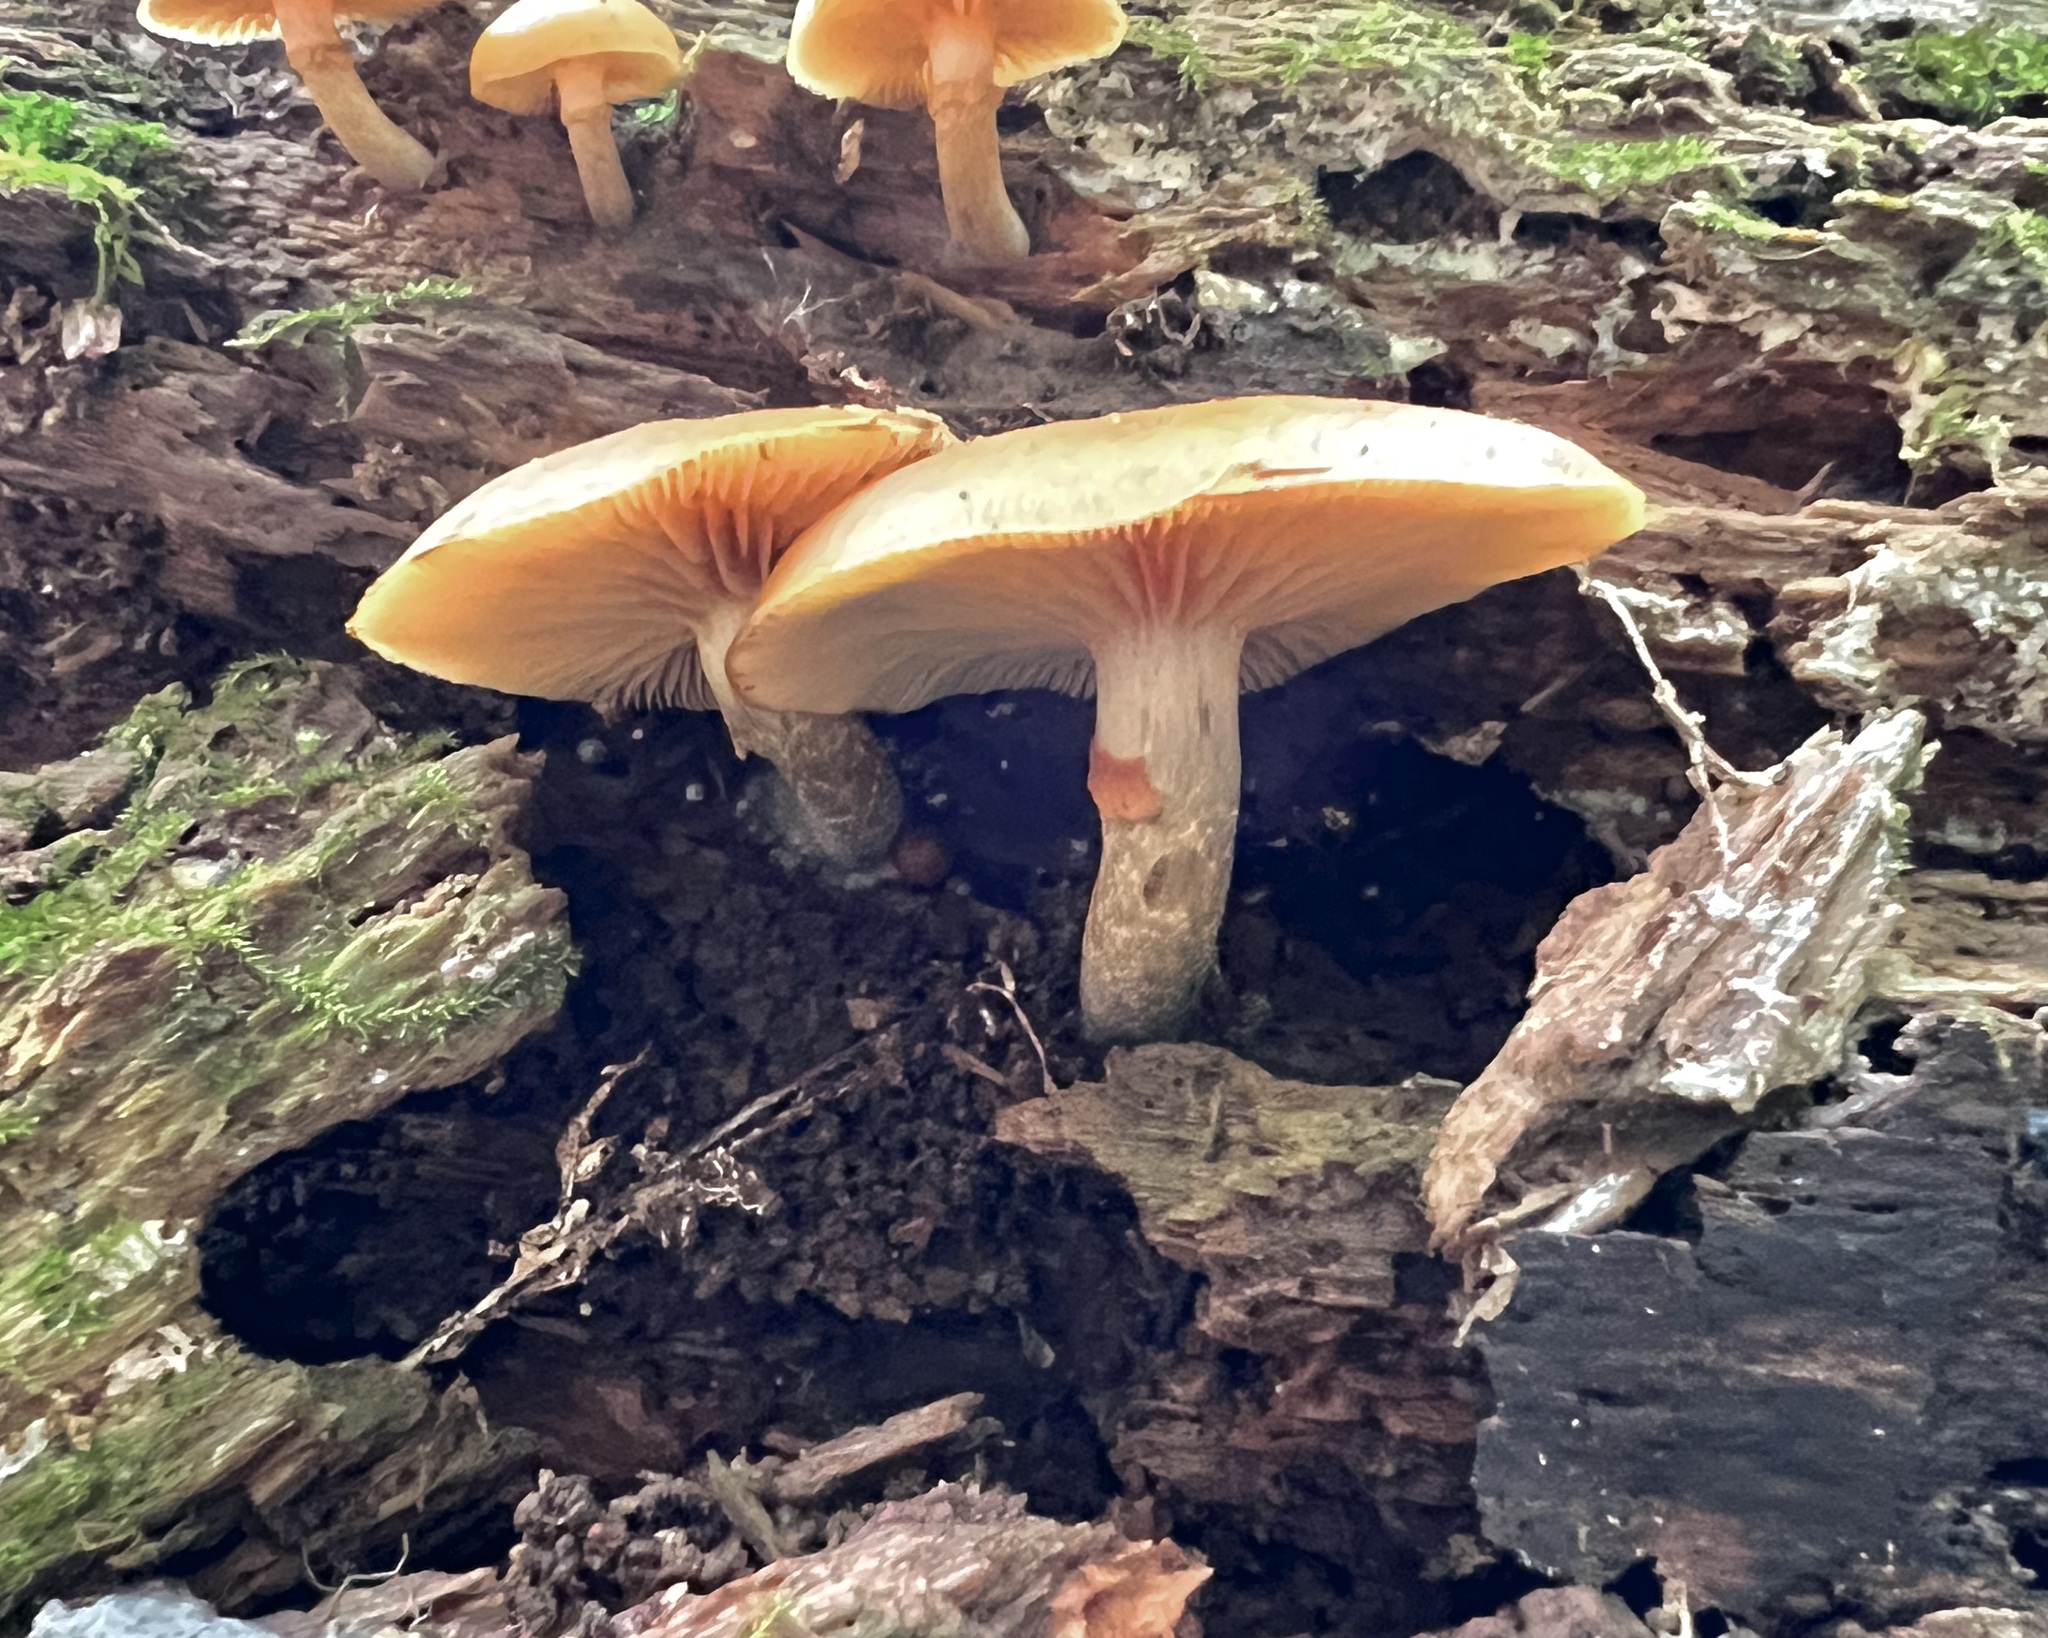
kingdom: Fungi
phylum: Basidiomycota
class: Agaricomycetes
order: Agaricales
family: Hymenogastraceae
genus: Galerina
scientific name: Galerina marginata
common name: Funeral bell
